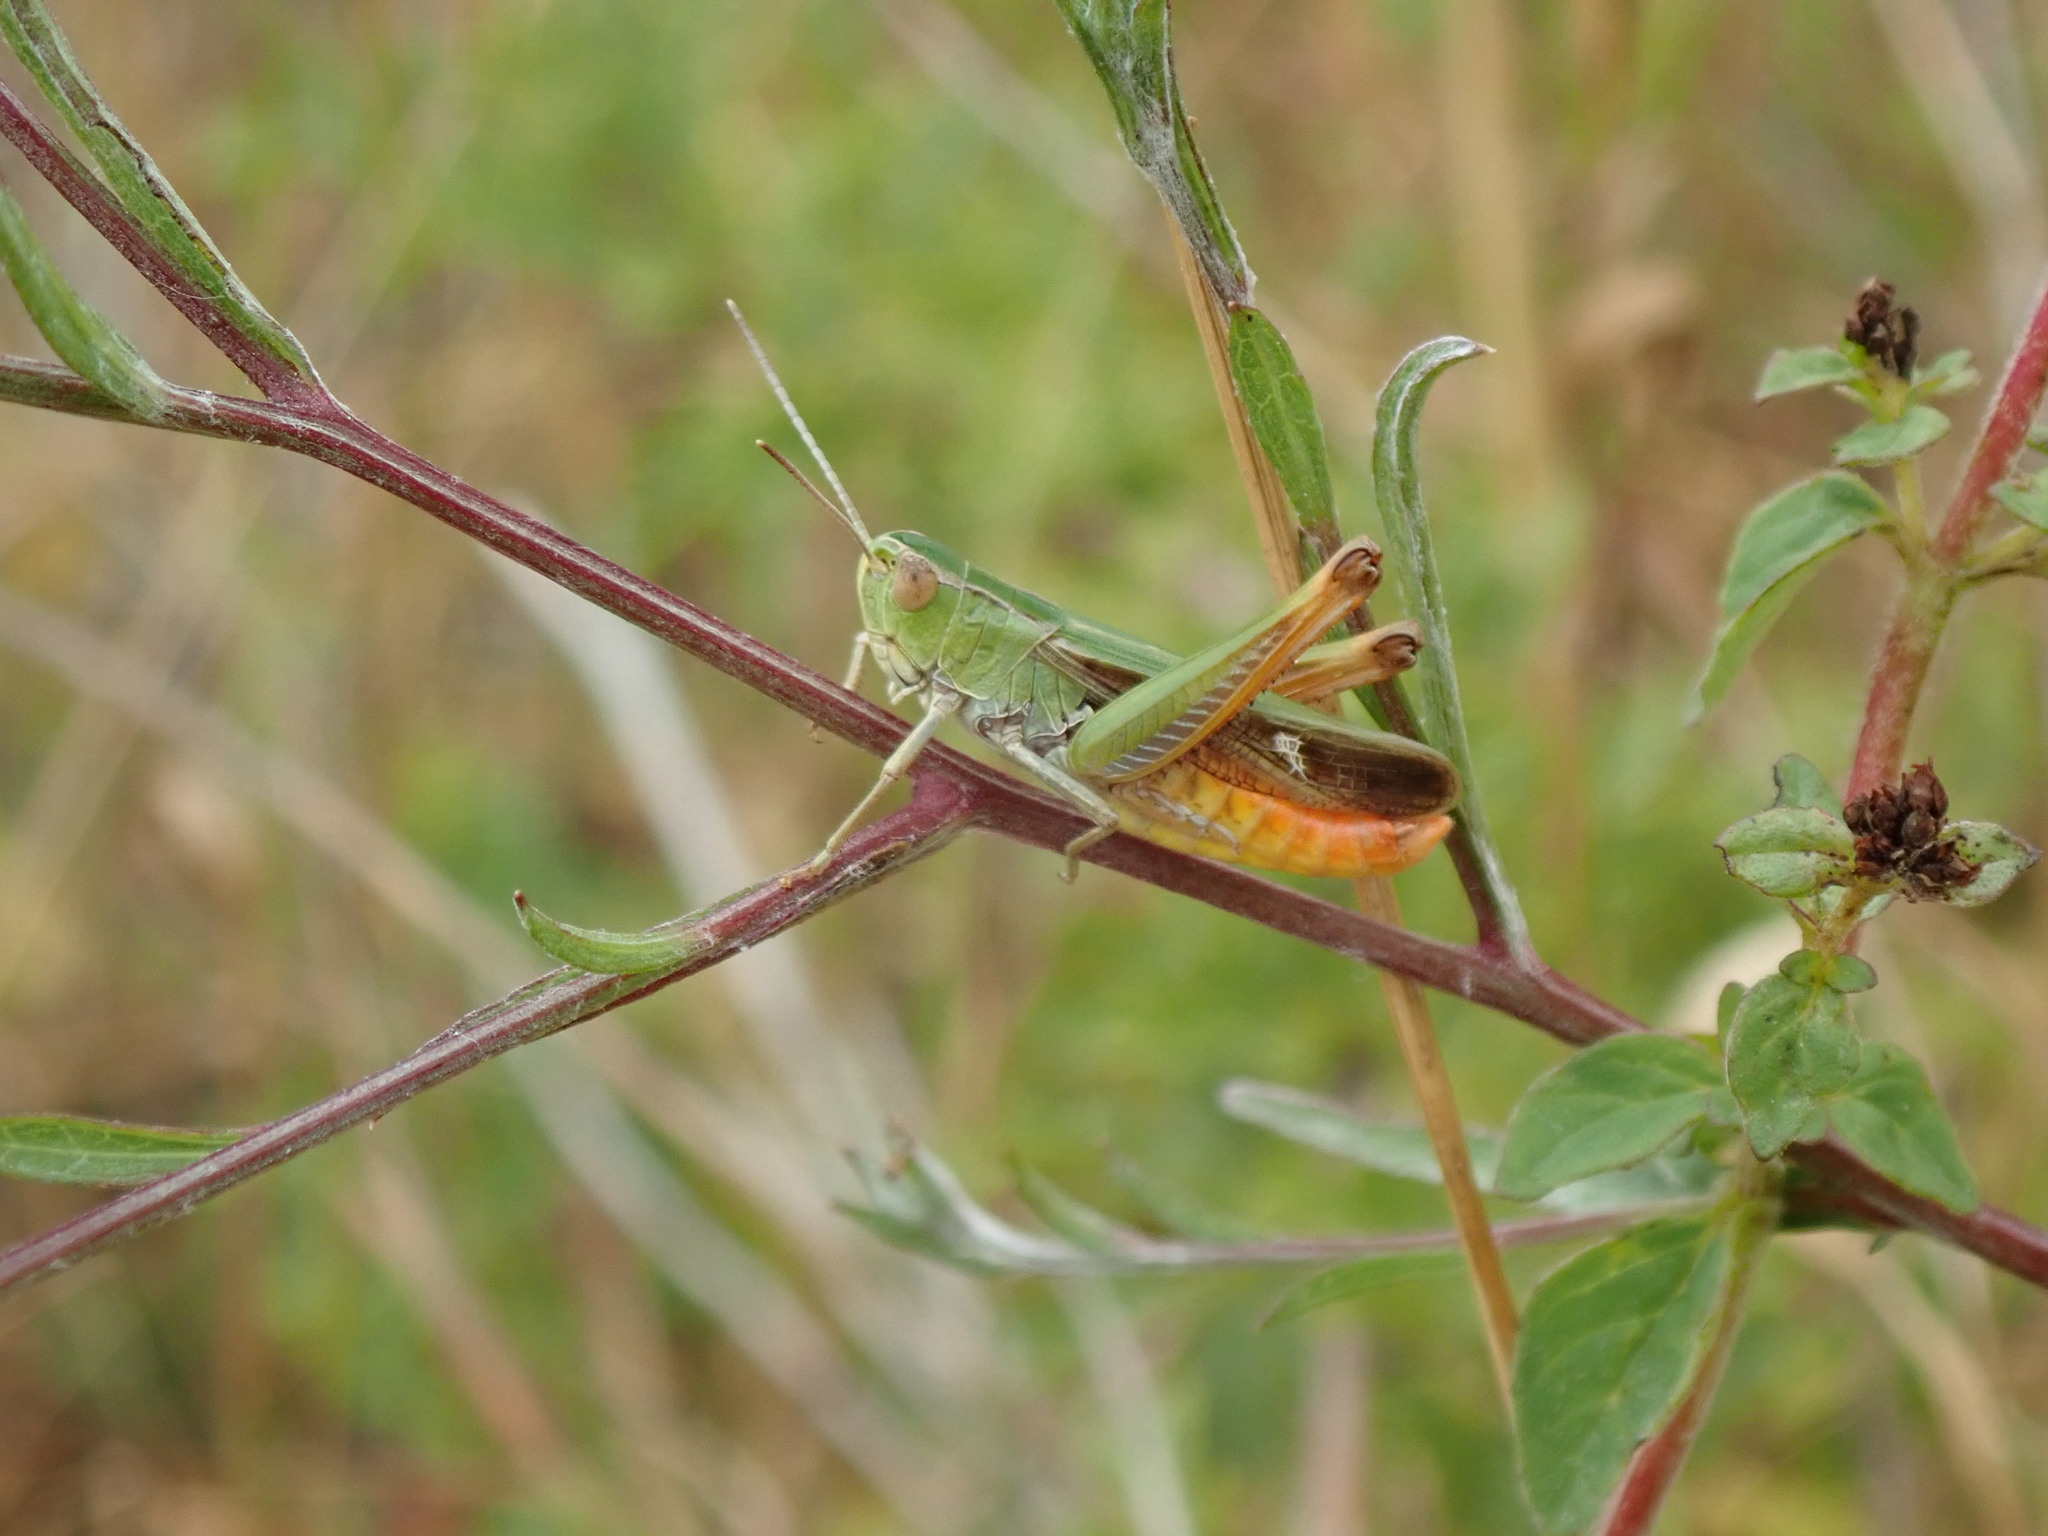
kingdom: Animalia
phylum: Arthropoda
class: Insecta
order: Orthoptera
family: Acrididae
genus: Stenobothrus
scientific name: Stenobothrus lineatus
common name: Stripe-winged grasshopper
